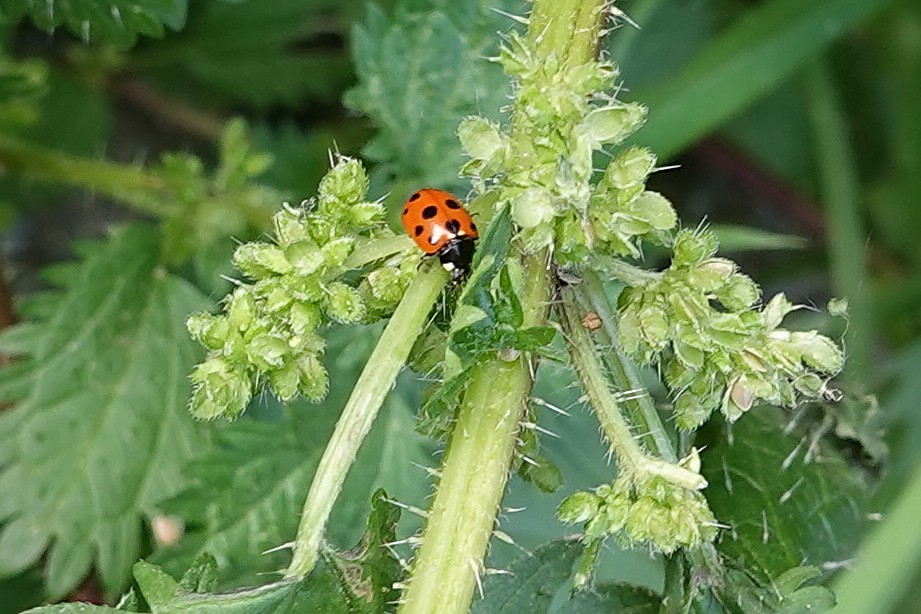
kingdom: Animalia
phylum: Arthropoda
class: Insecta
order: Coleoptera
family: Coccinellidae
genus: Coccinella
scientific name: Coccinella undecimpunctata
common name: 11-spot ladybird
